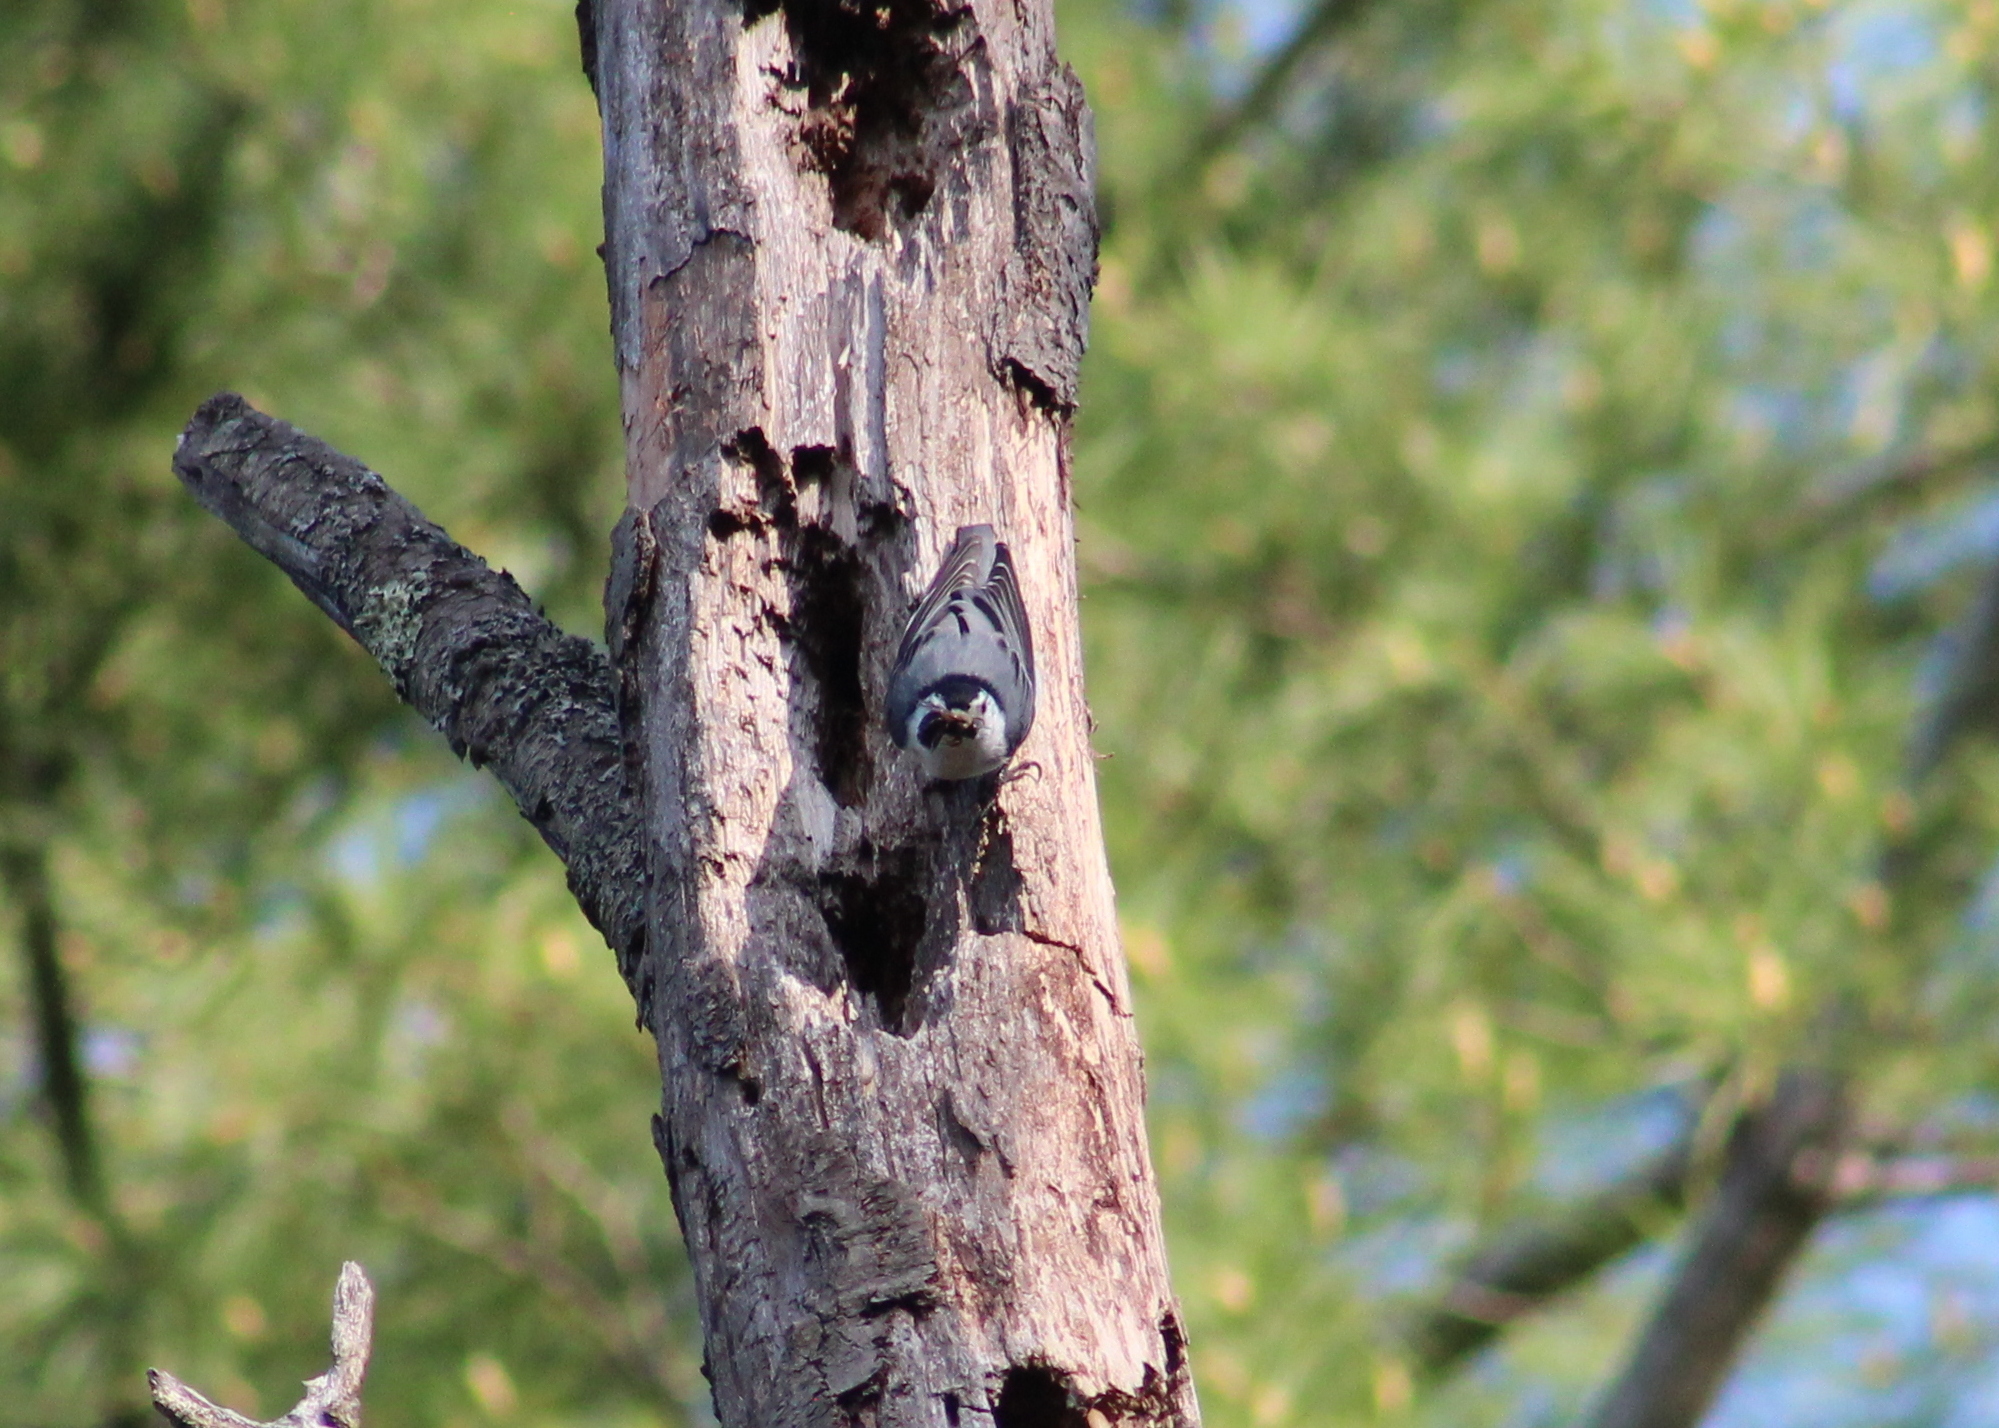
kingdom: Animalia
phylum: Chordata
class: Aves
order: Passeriformes
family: Sittidae
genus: Sitta
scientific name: Sitta carolinensis
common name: White-breasted nuthatch
